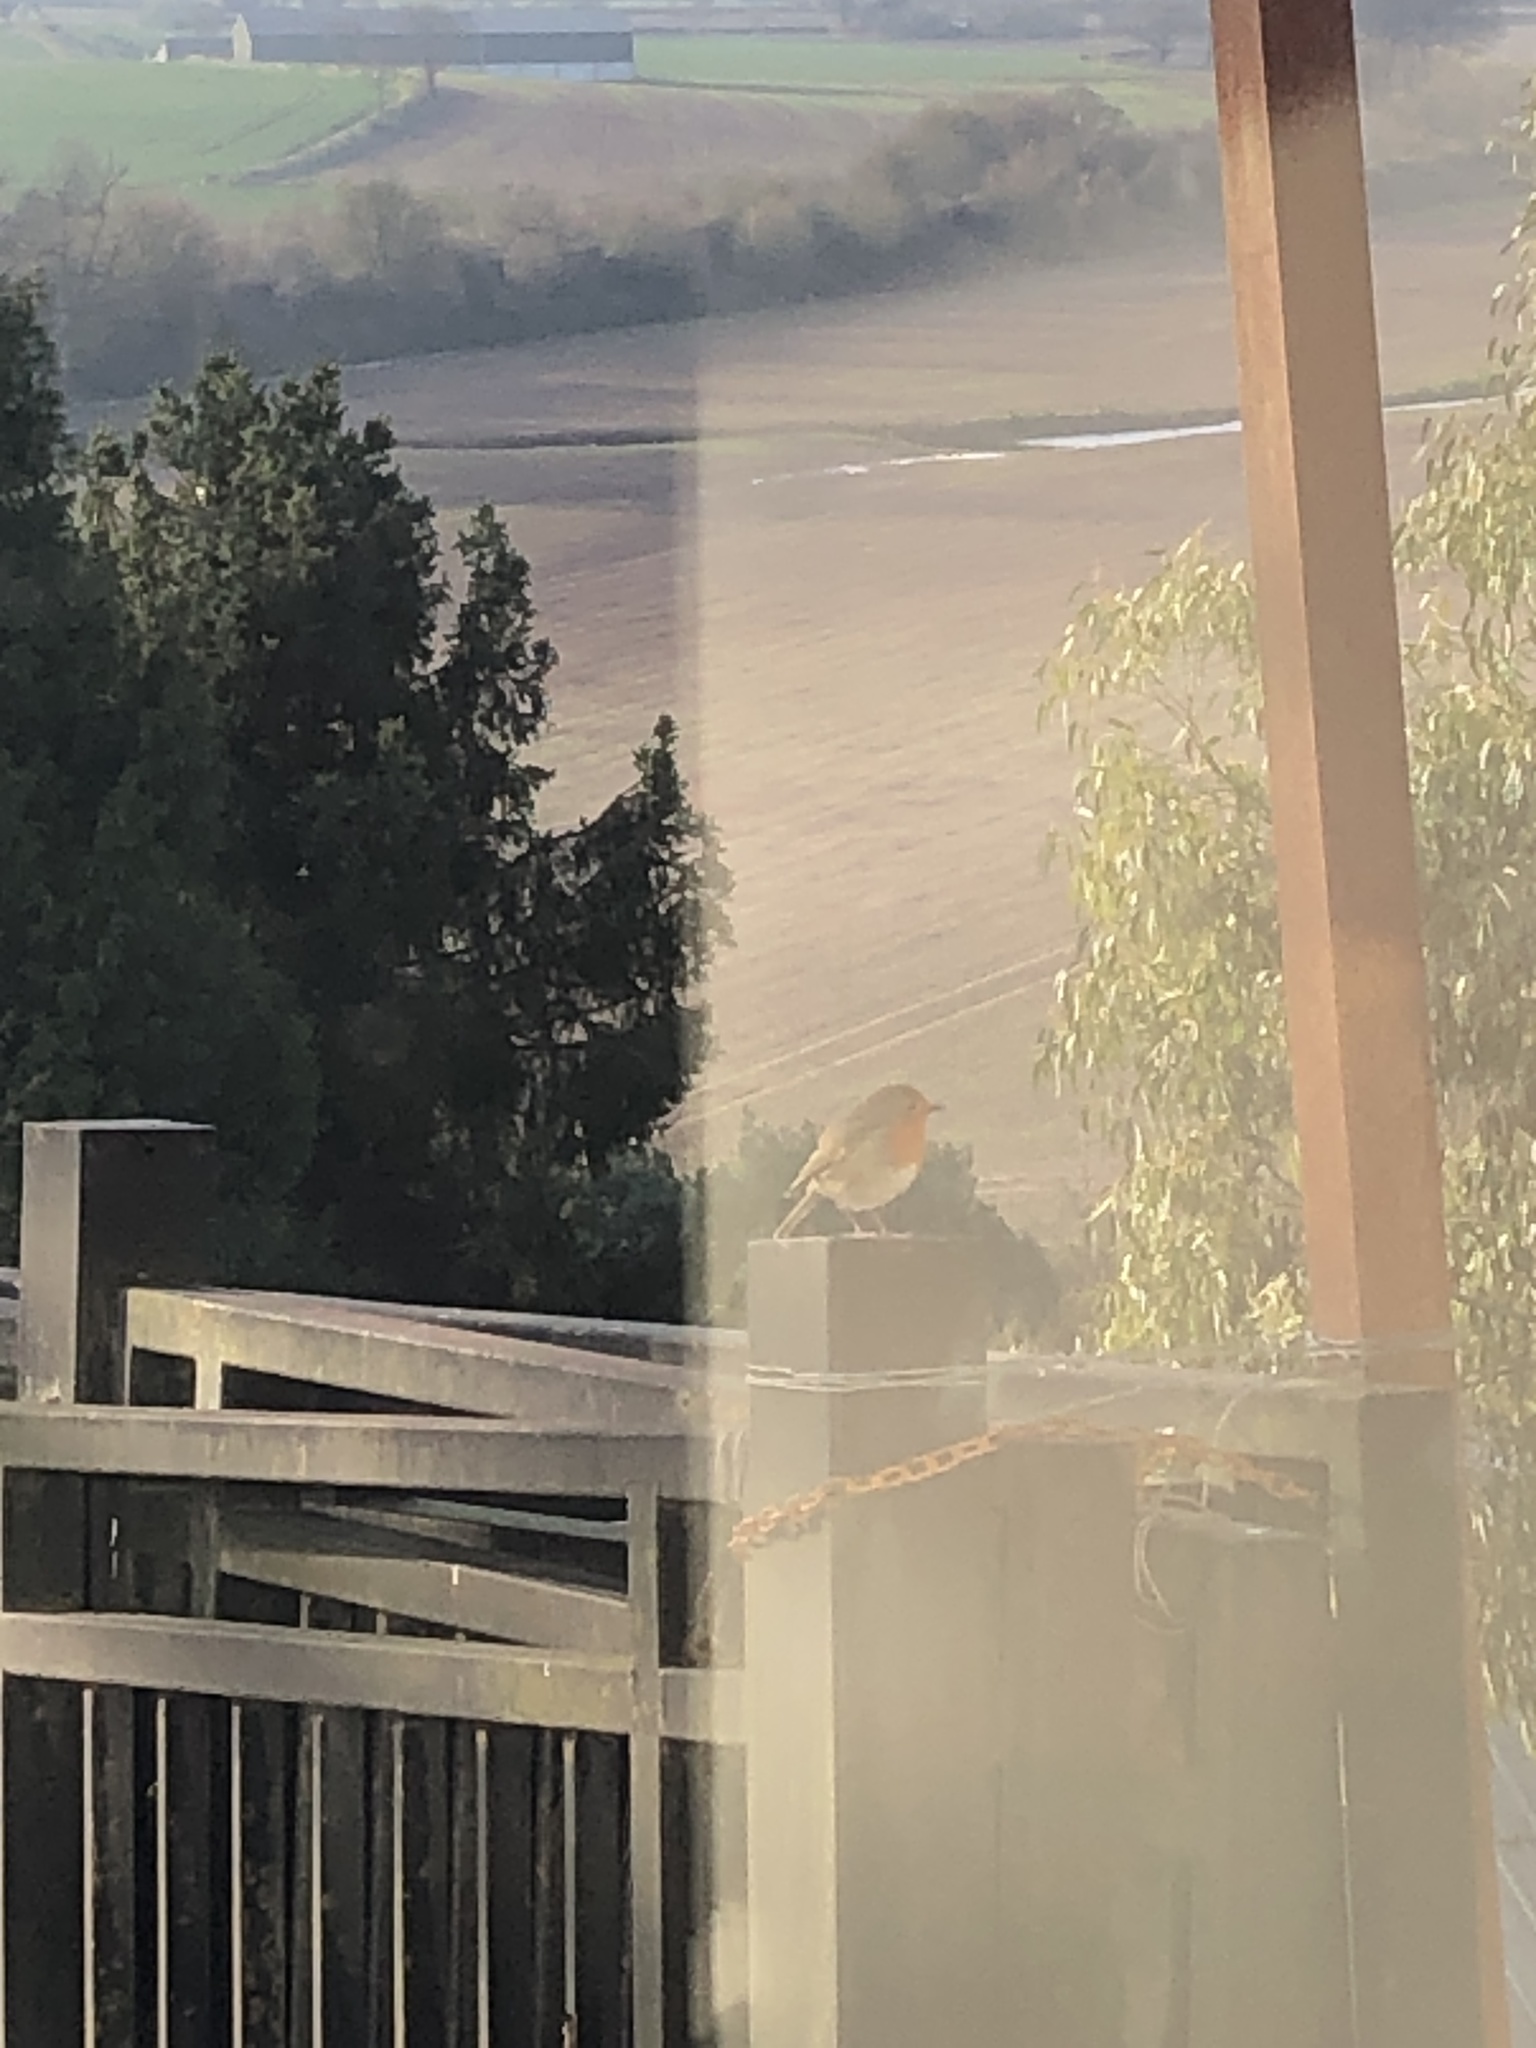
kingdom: Animalia
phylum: Chordata
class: Aves
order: Passeriformes
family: Muscicapidae
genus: Erithacus
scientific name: Erithacus rubecula
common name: European robin
